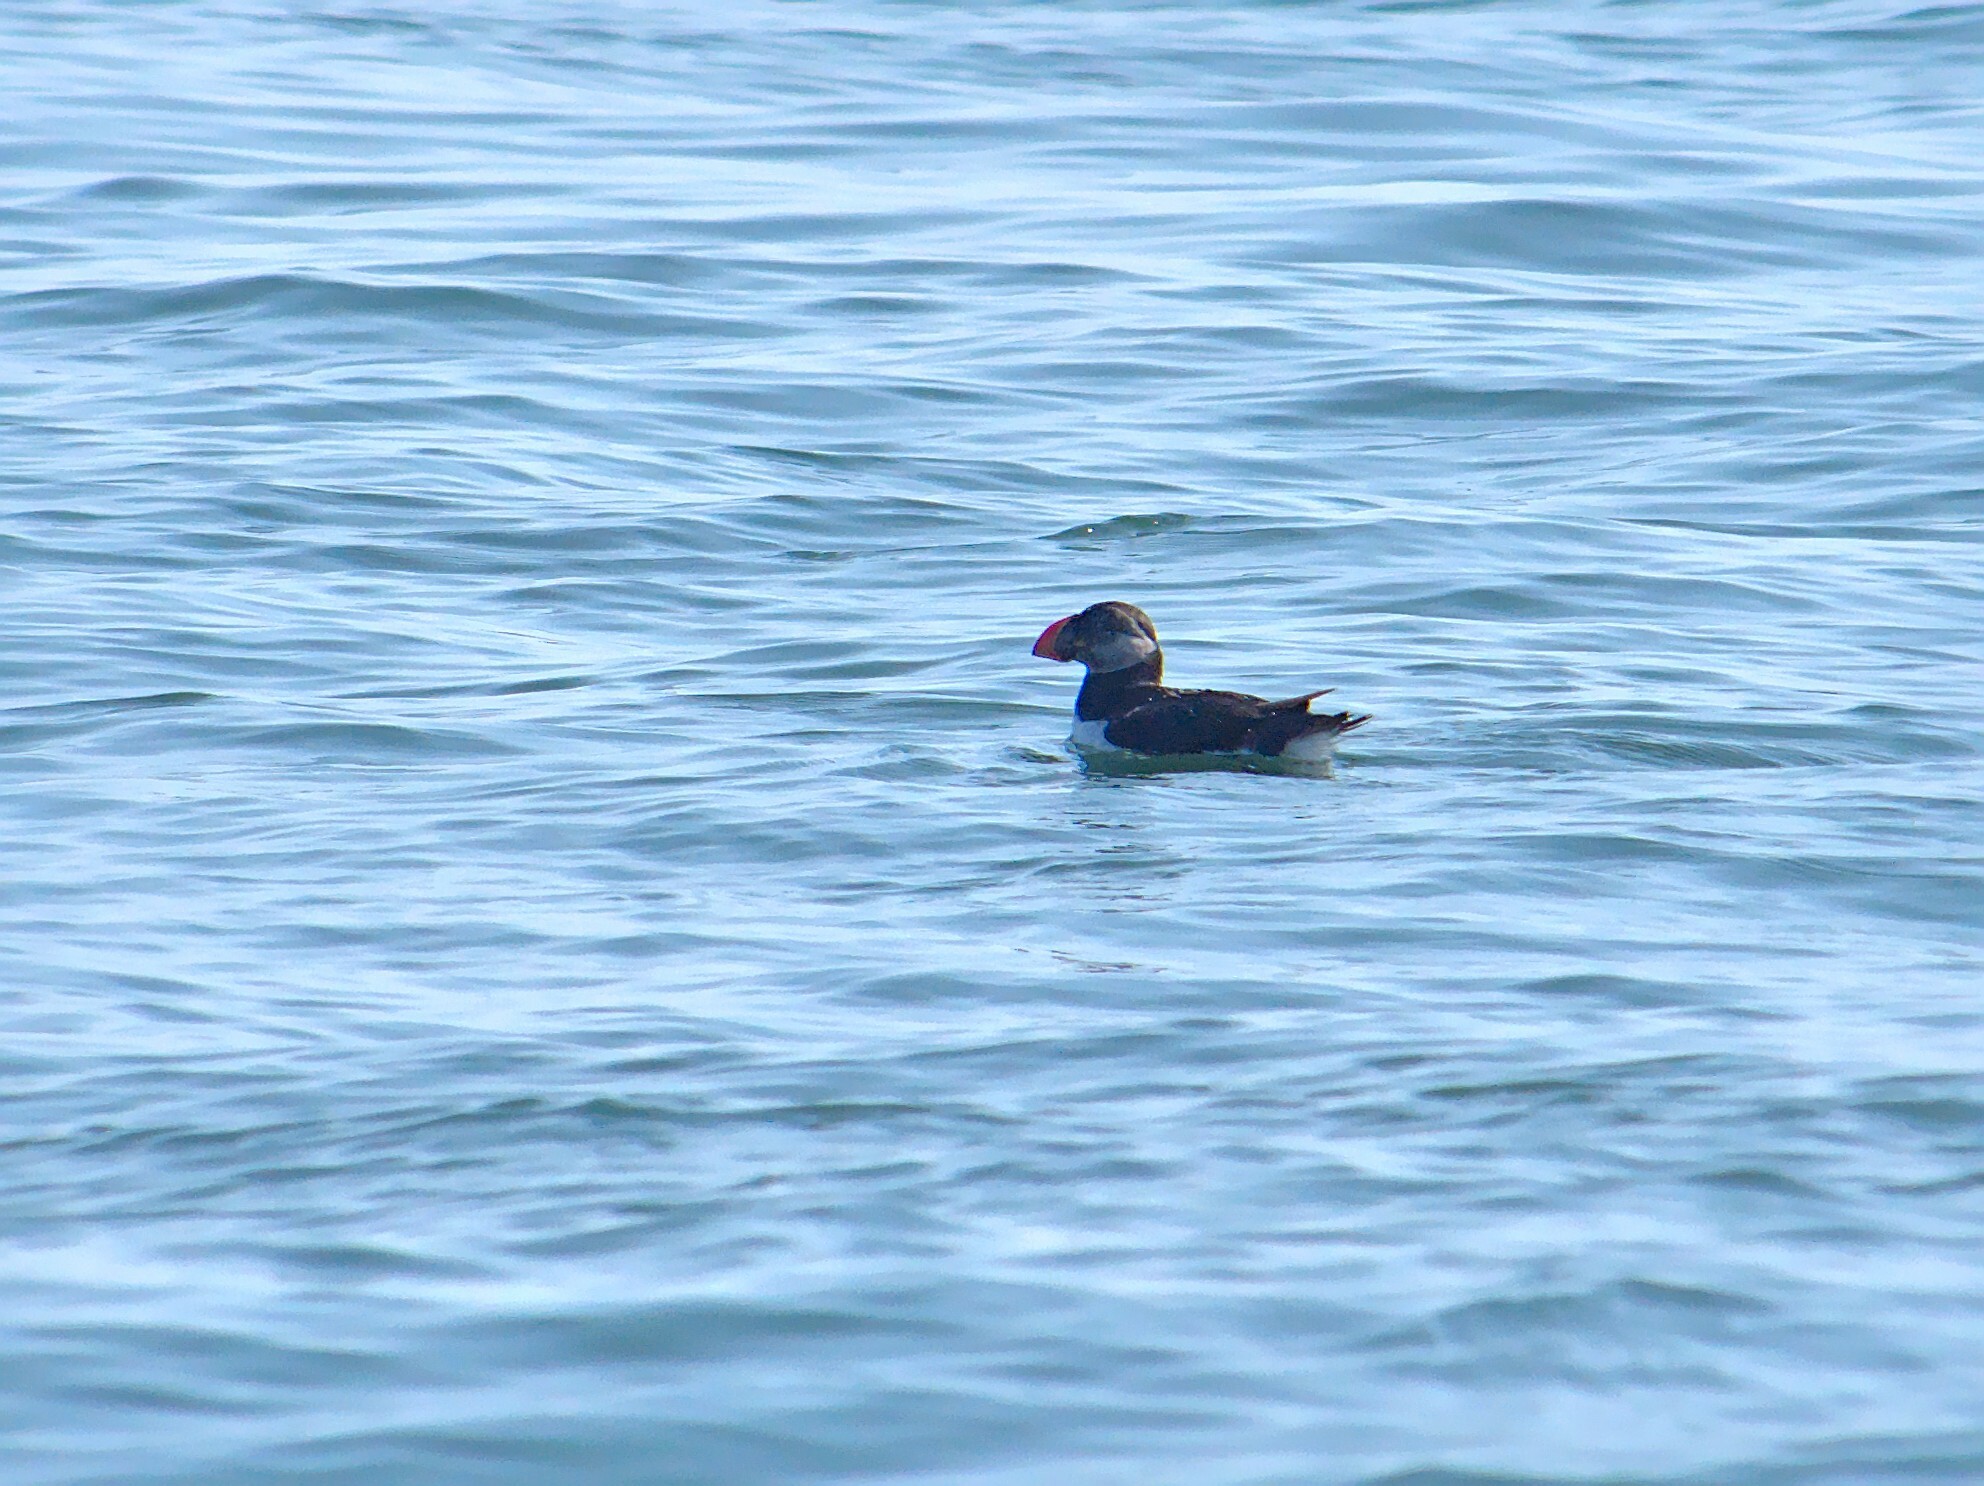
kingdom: Animalia
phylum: Chordata
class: Aves
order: Charadriiformes
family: Alcidae
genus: Fratercula
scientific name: Fratercula arctica
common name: Atlantic puffin
